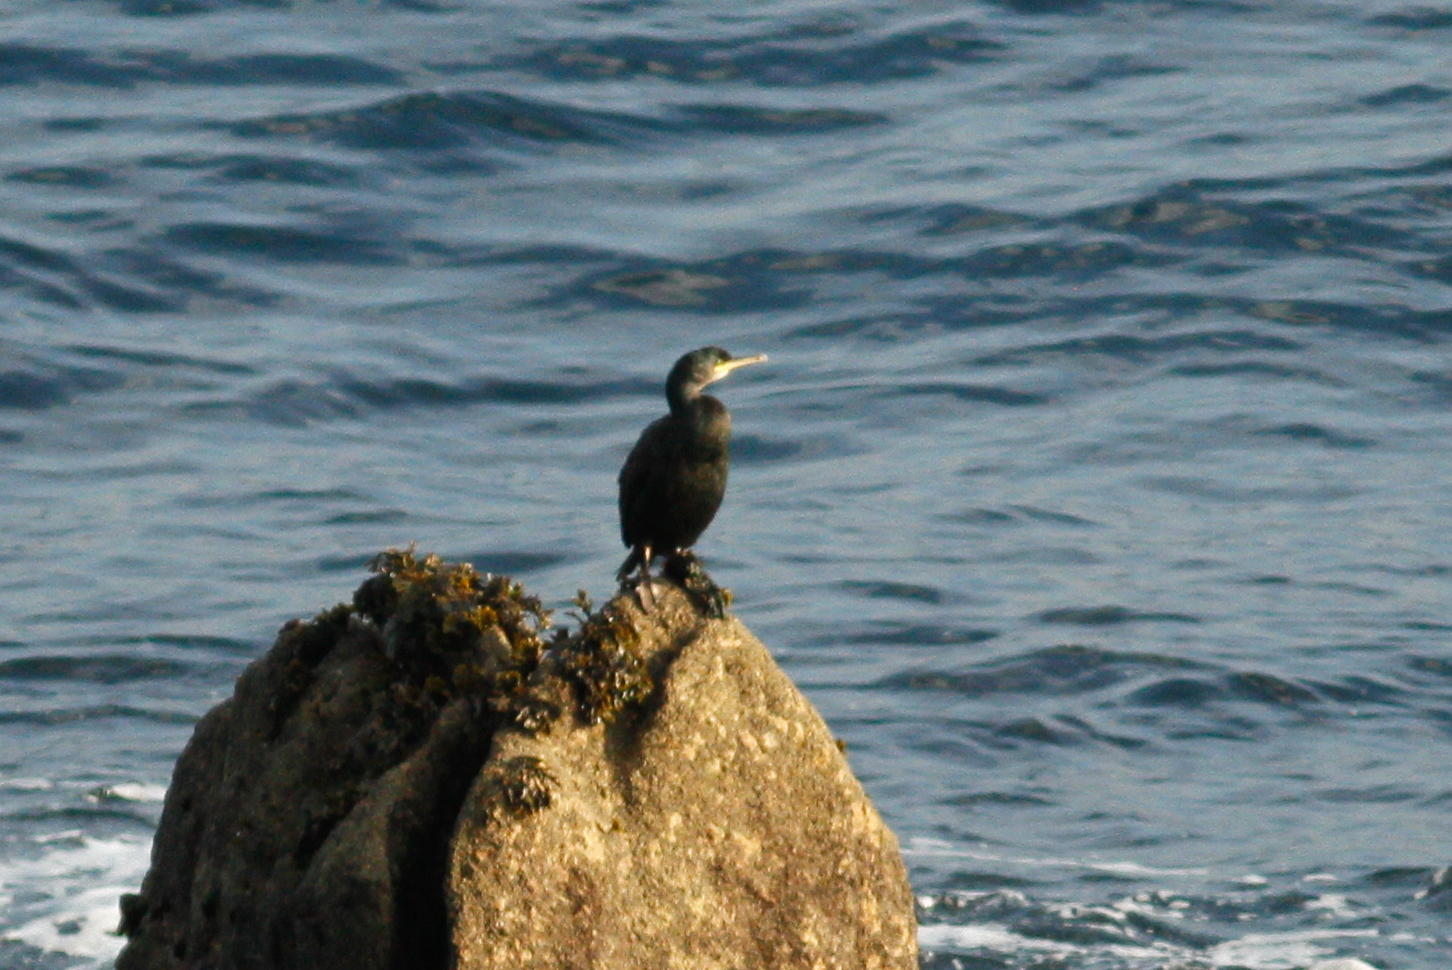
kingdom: Animalia
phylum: Chordata
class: Aves
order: Suliformes
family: Phalacrocoracidae
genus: Phalacrocorax
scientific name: Phalacrocorax aristotelis
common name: European shag
